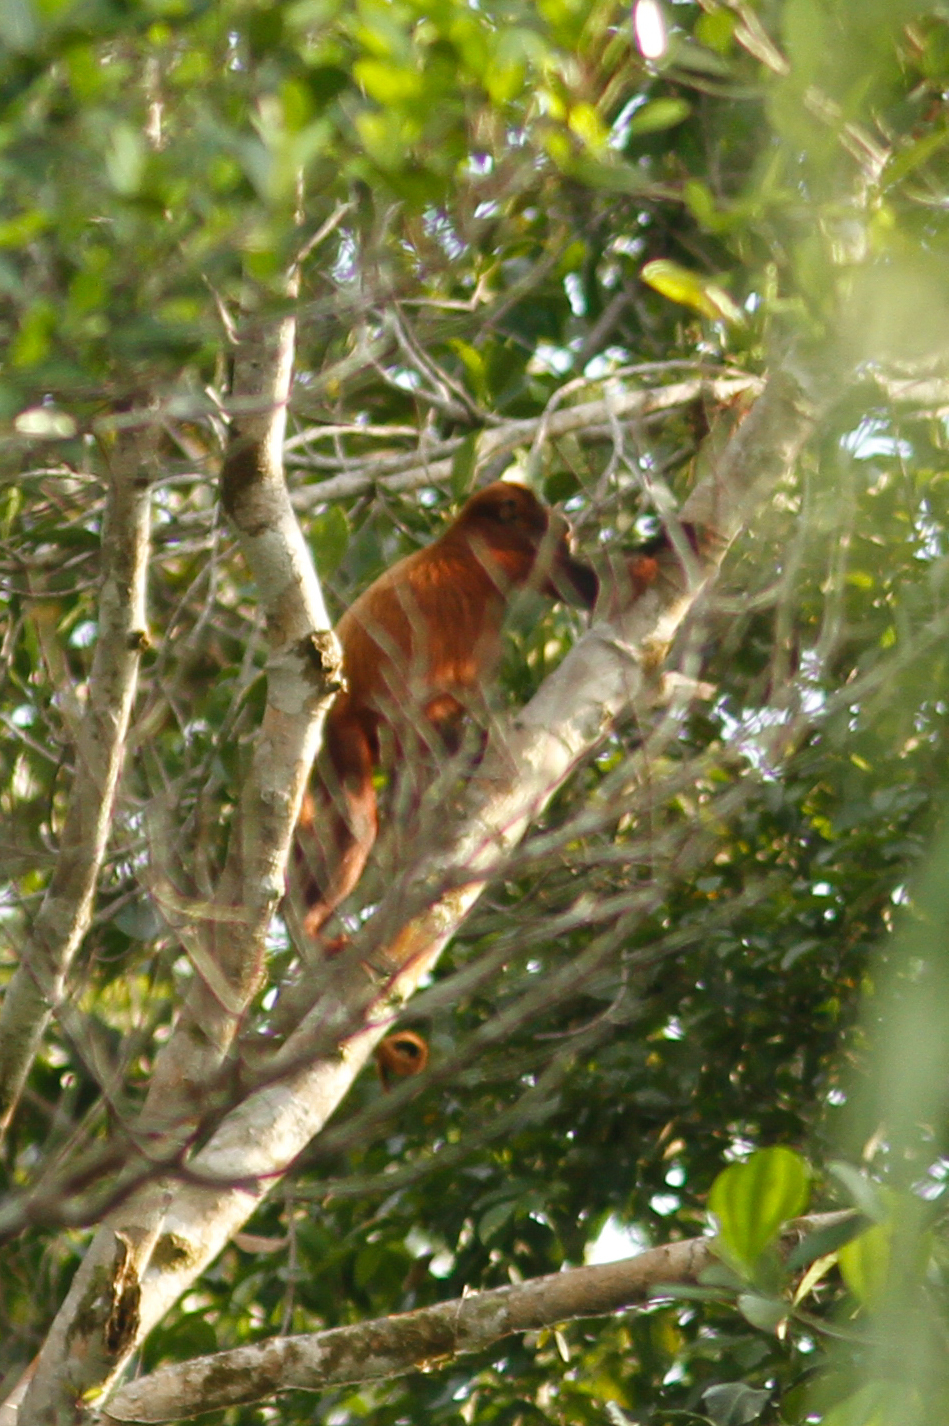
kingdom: Animalia
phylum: Chordata
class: Mammalia
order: Primates
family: Atelidae
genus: Alouatta
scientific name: Alouatta seniculus
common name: Venezuelan red howler
